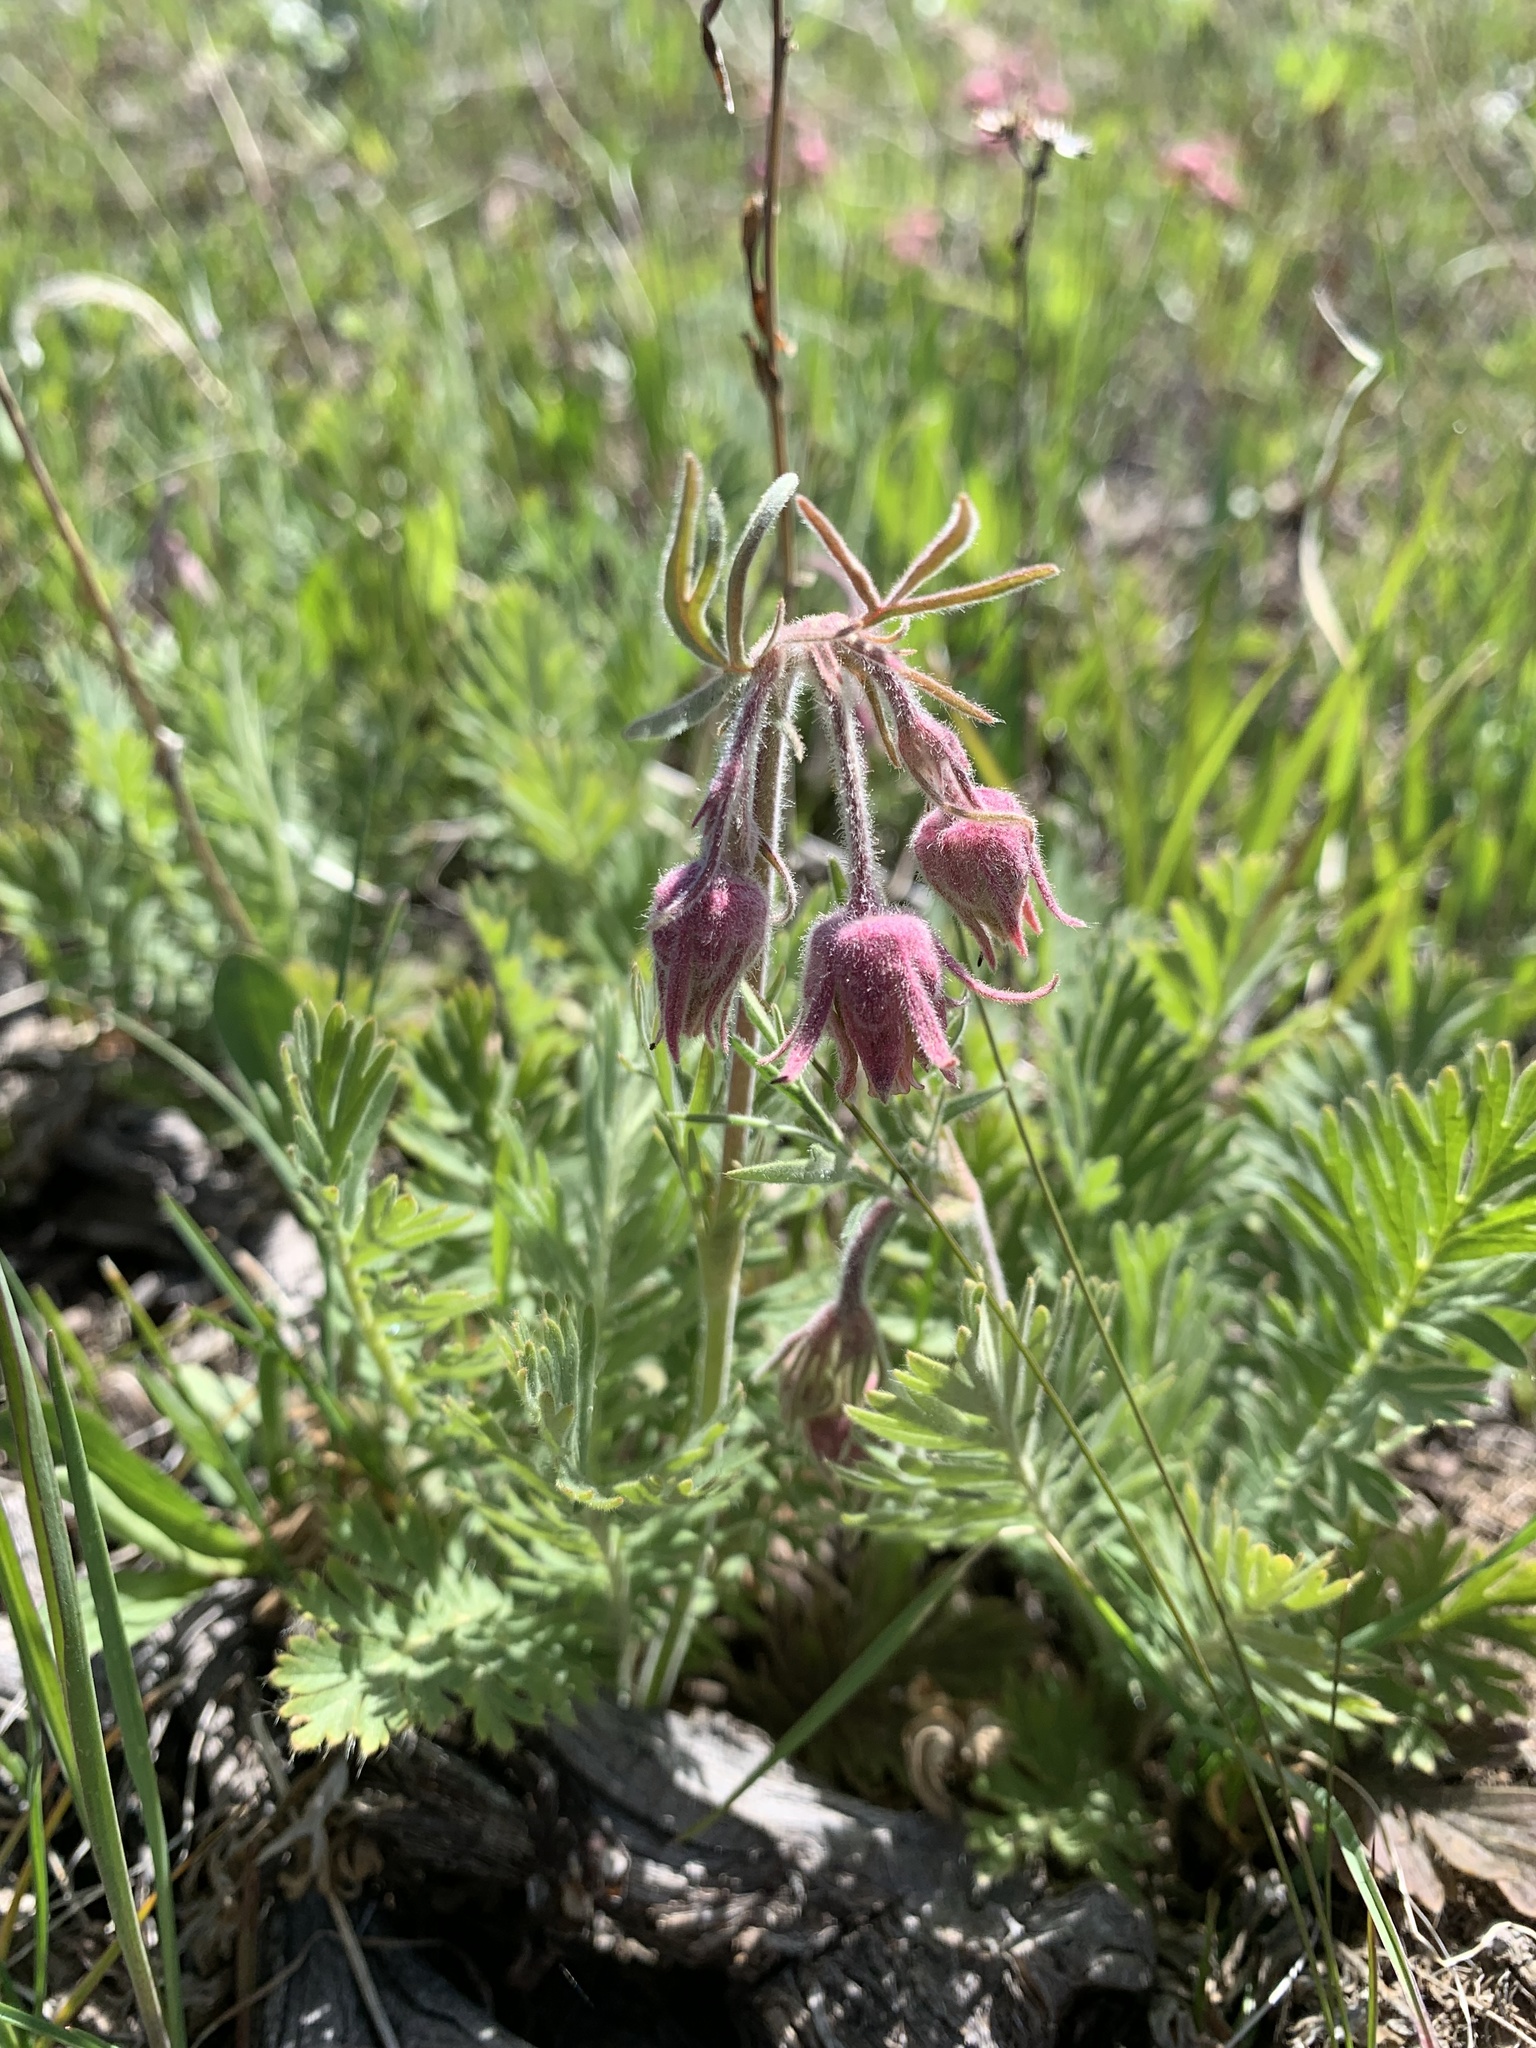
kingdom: Plantae
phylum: Tracheophyta
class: Magnoliopsida
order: Rosales
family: Rosaceae
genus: Geum
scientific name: Geum triflorum
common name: Old man's whiskers
